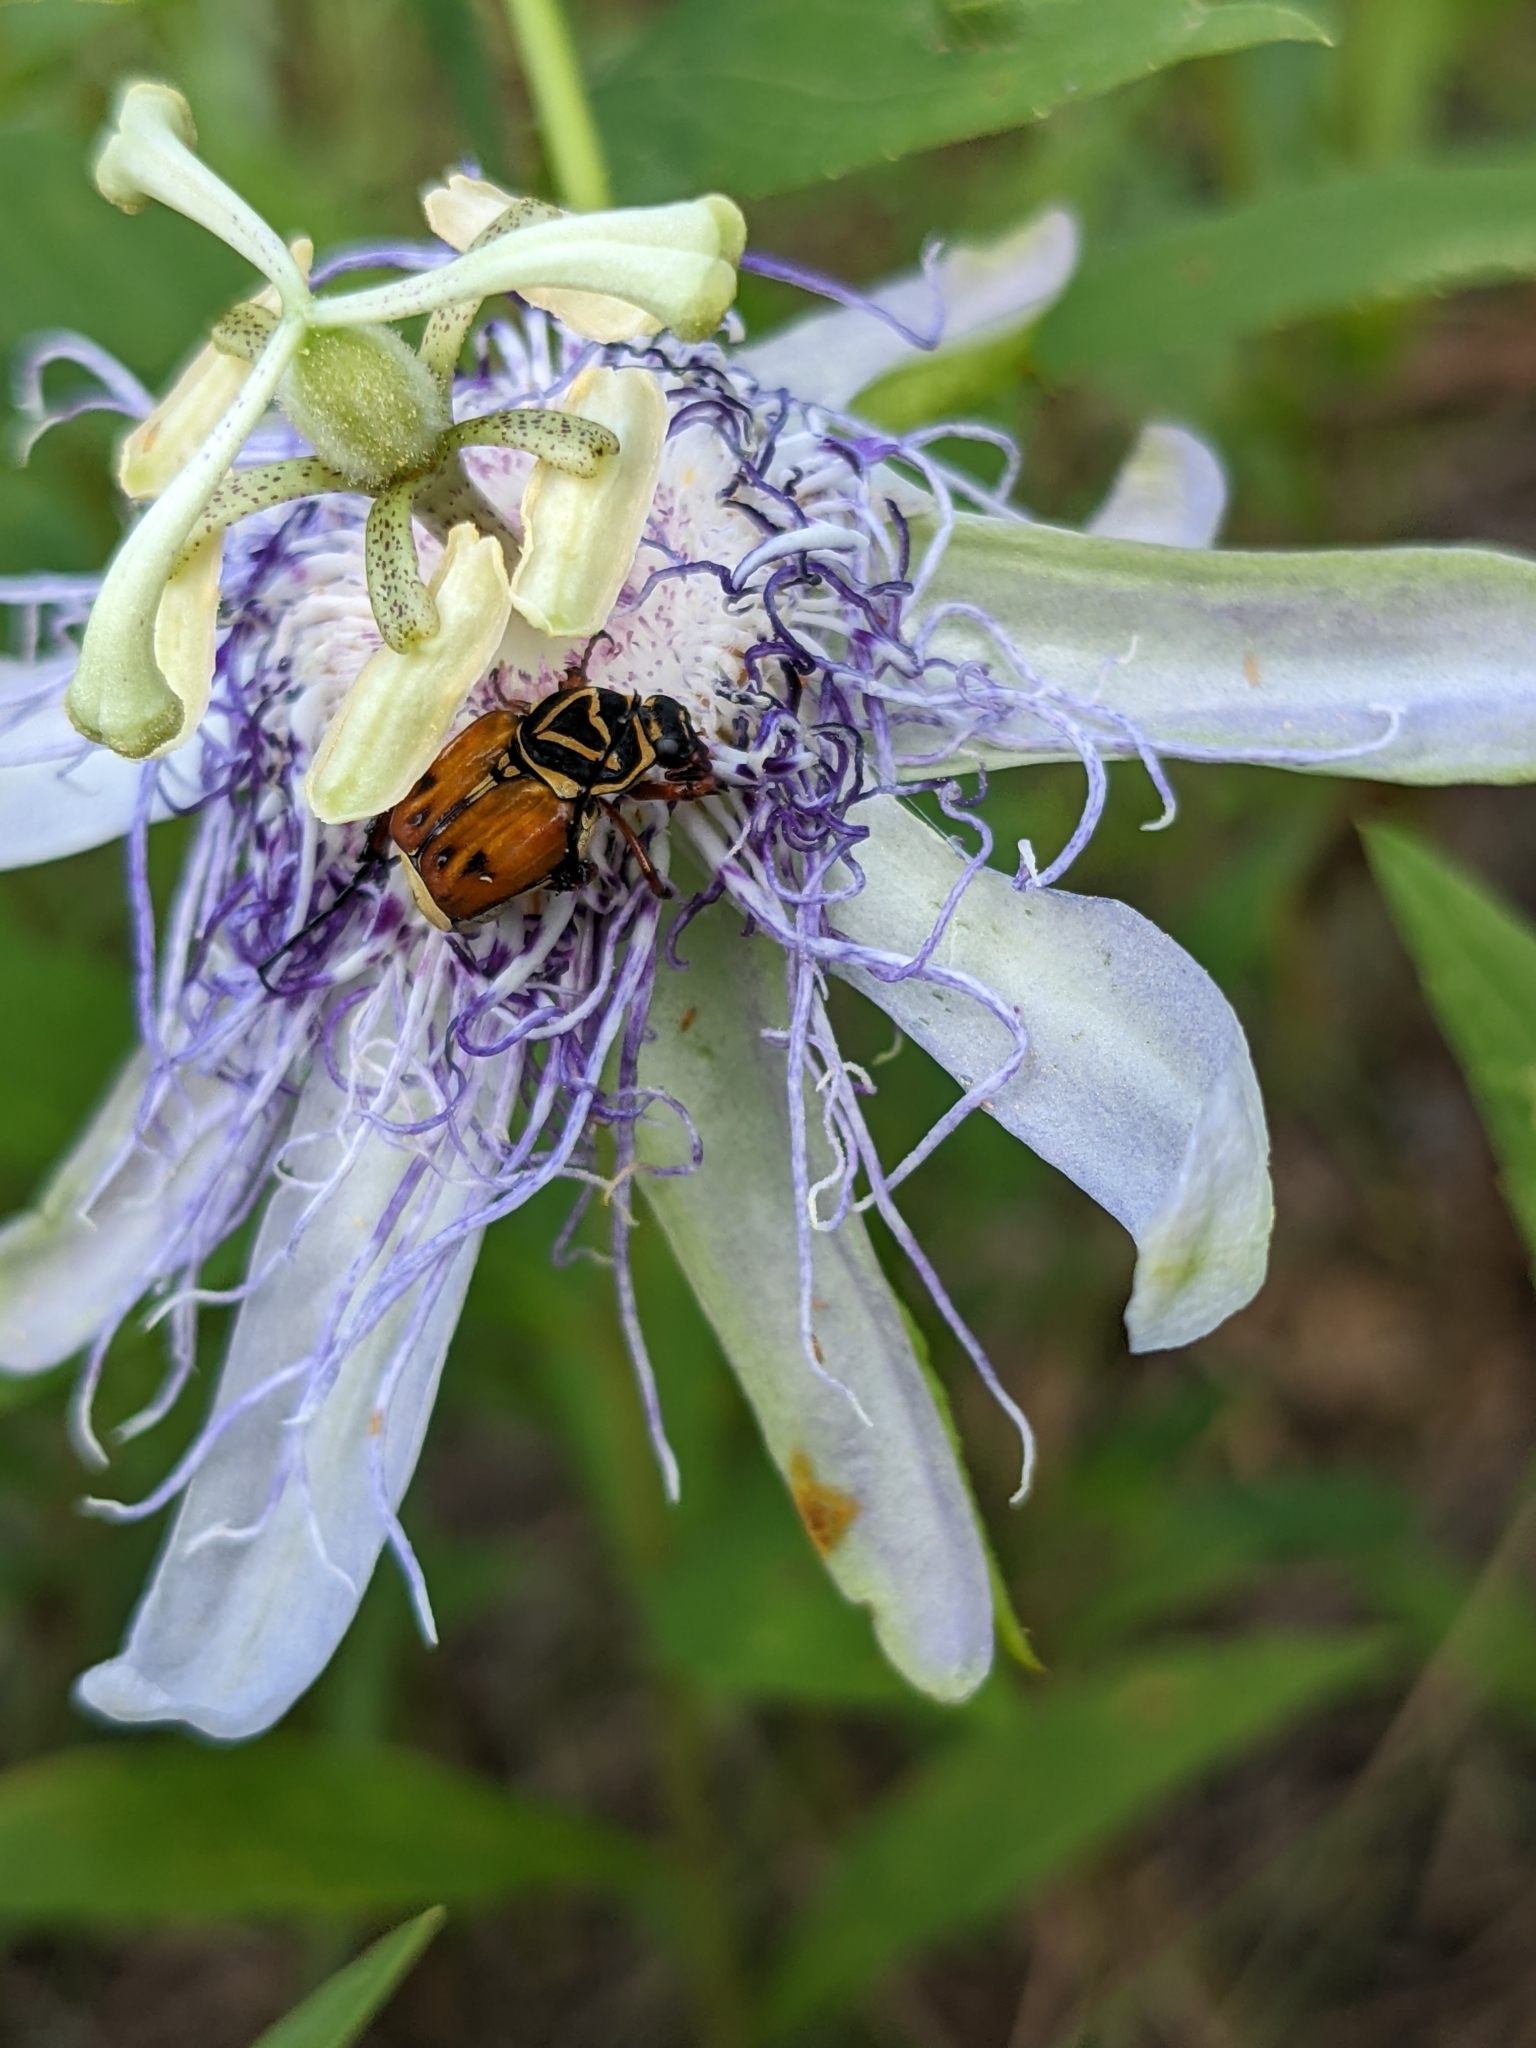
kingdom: Animalia
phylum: Arthropoda
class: Insecta
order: Coleoptera
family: Scarabaeidae
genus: Trigonopeltastes
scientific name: Trigonopeltastes delta
